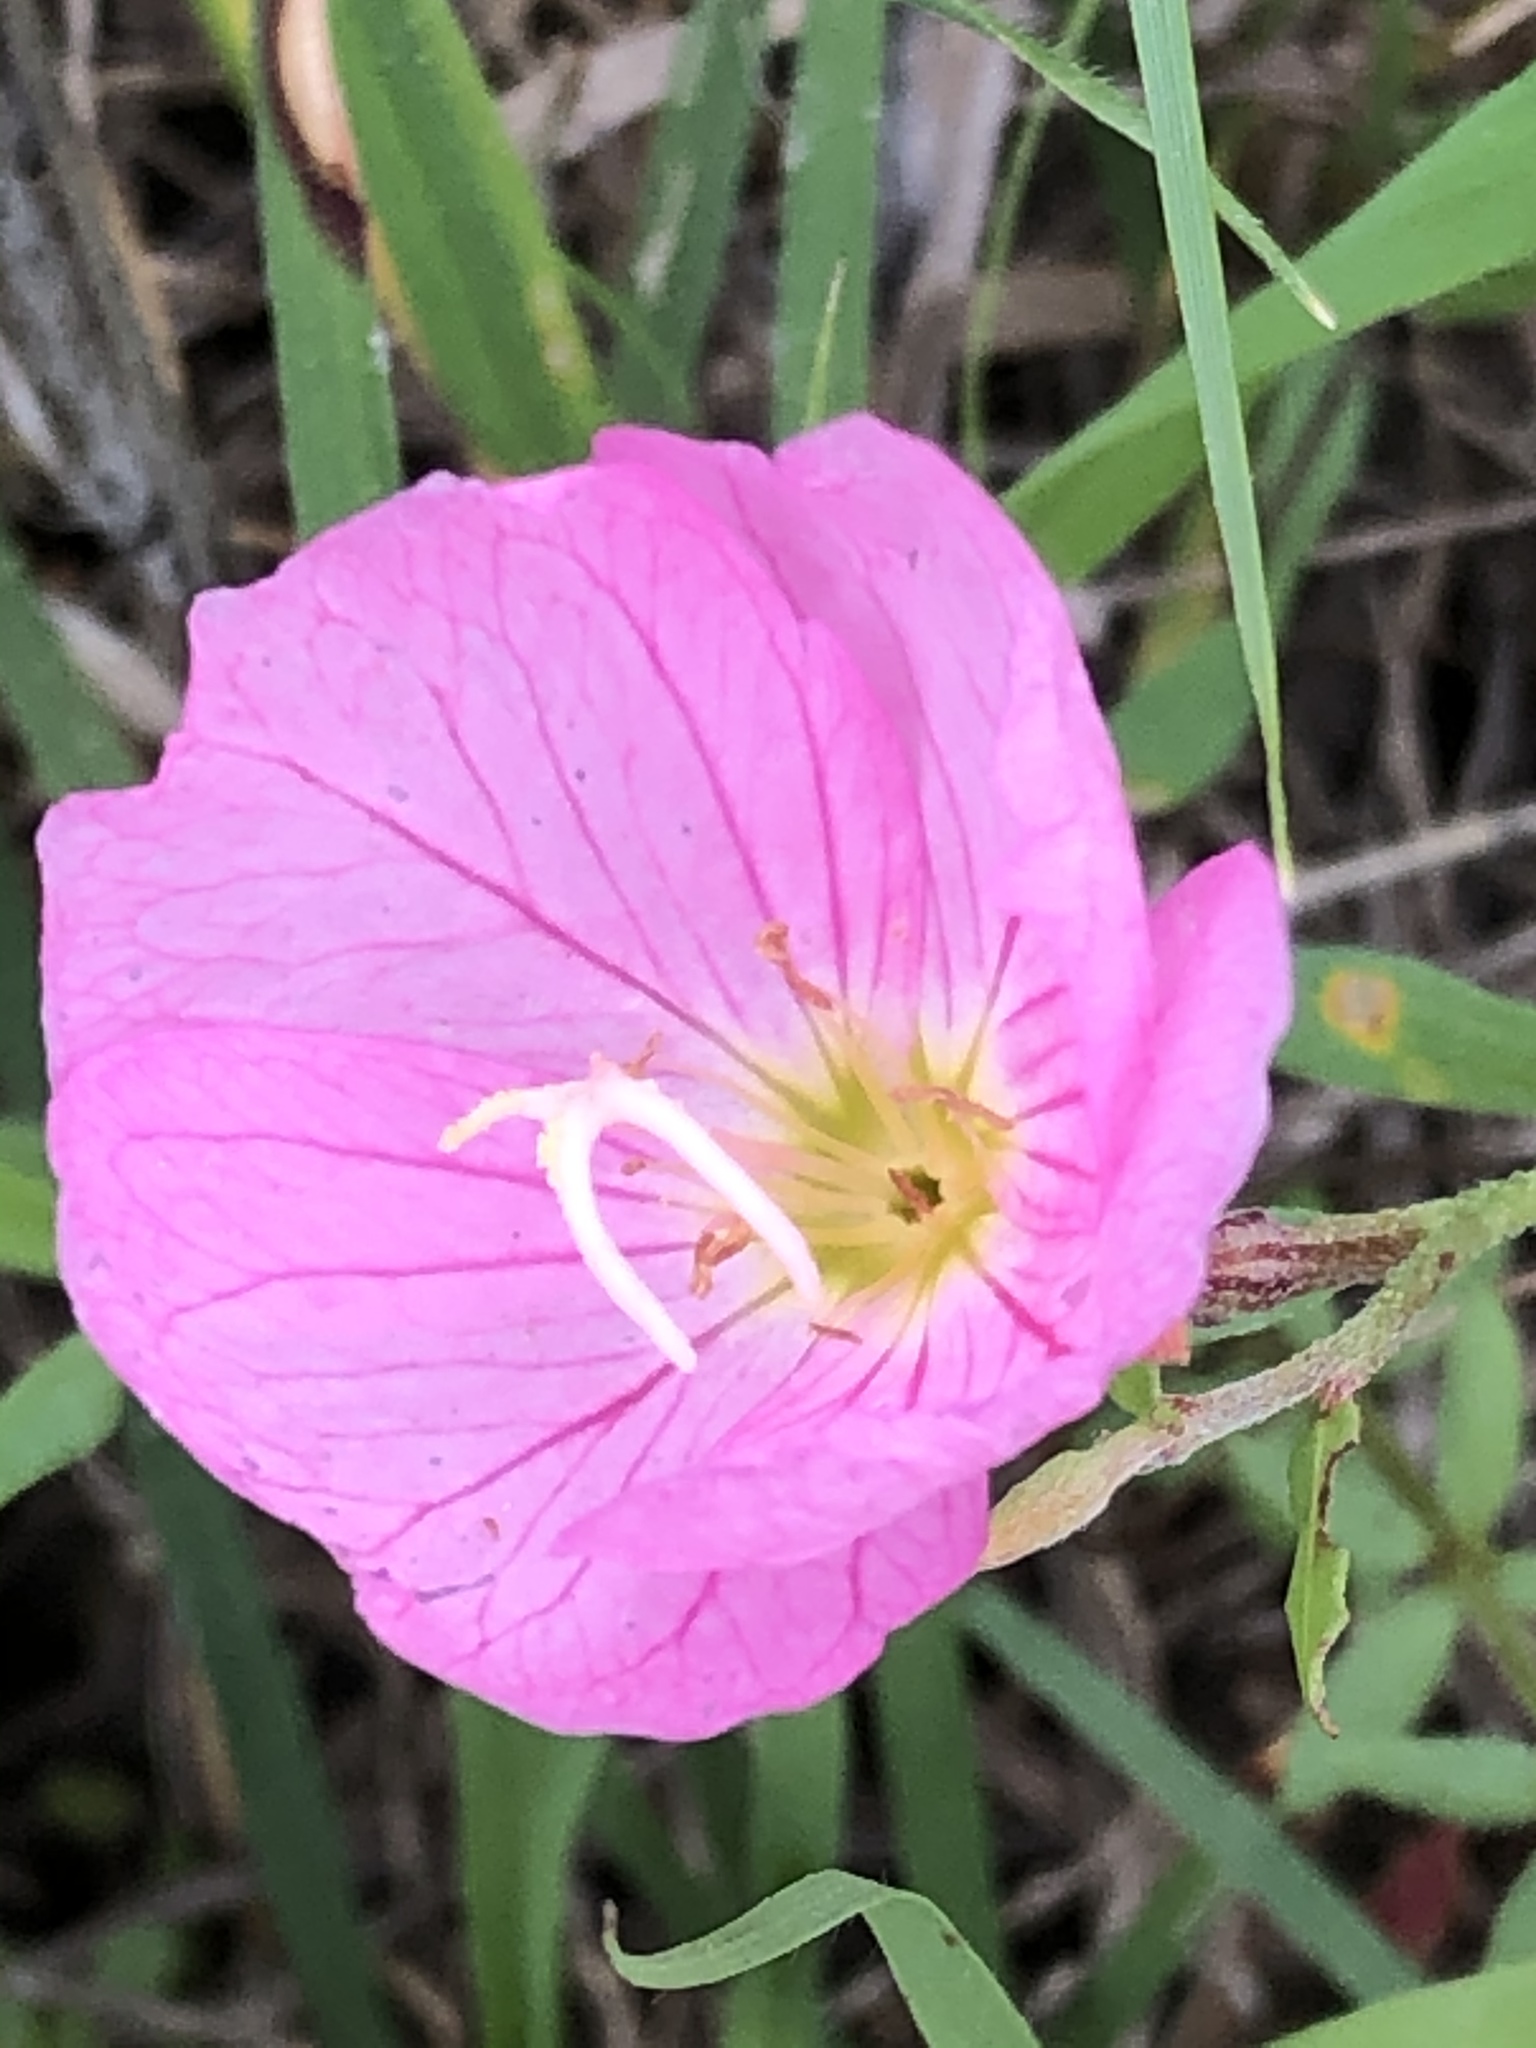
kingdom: Plantae
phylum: Tracheophyta
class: Magnoliopsida
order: Myrtales
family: Onagraceae
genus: Oenothera
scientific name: Oenothera speciosa
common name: White evening-primrose
